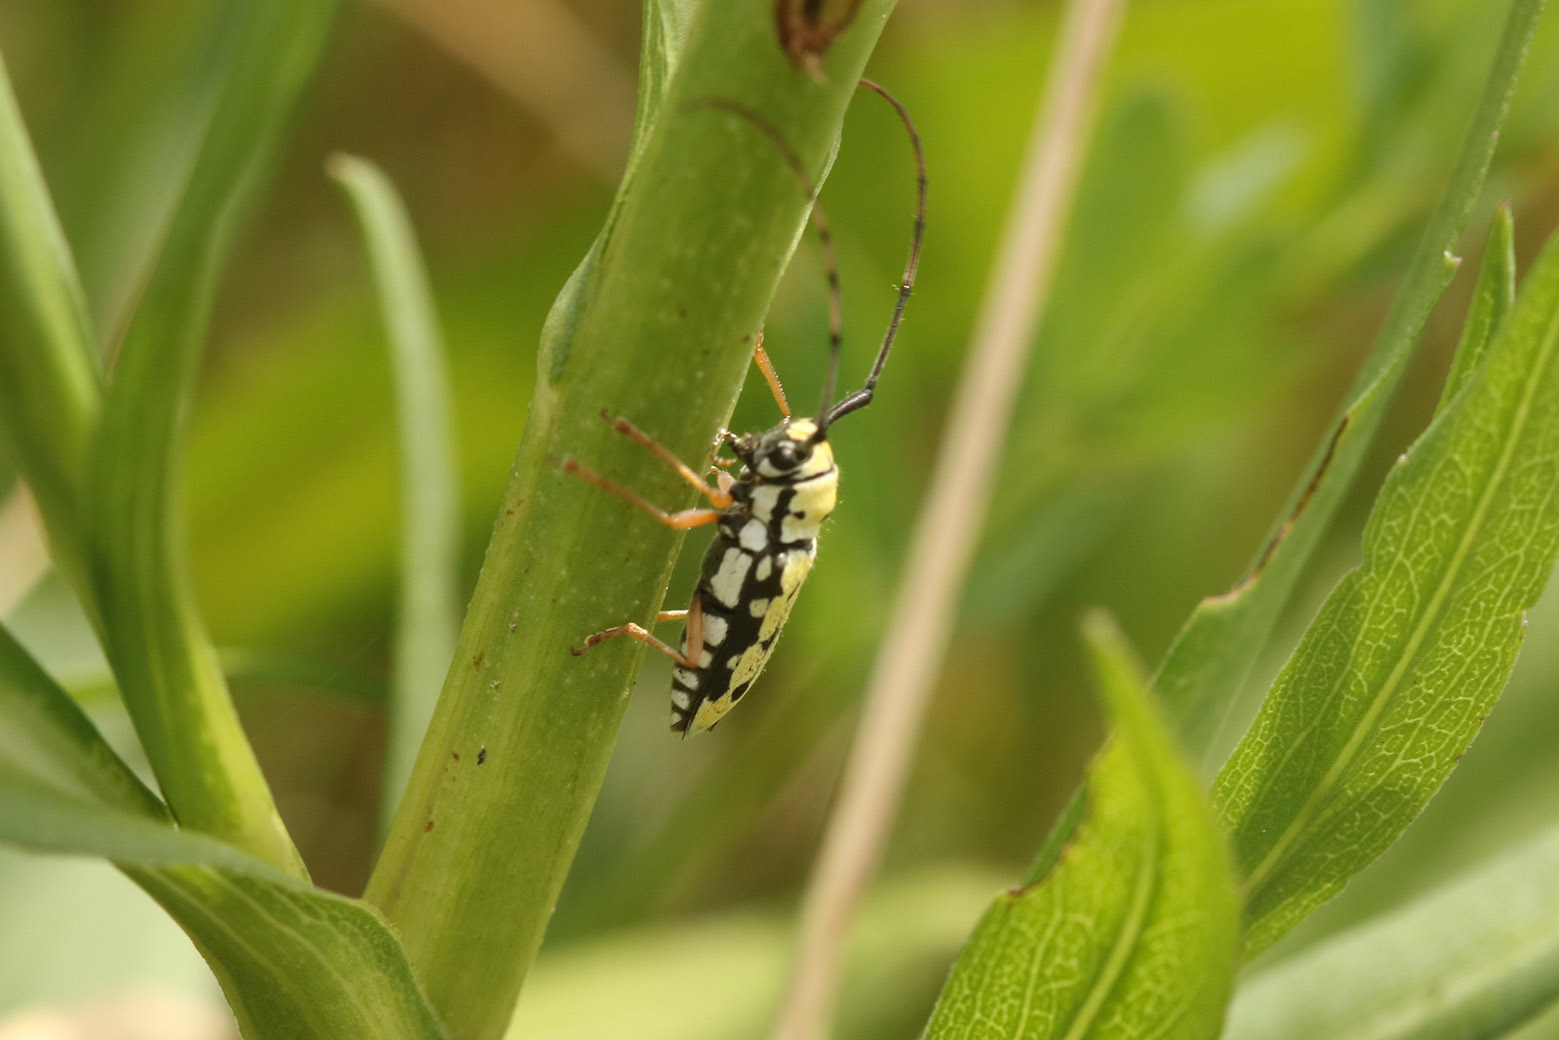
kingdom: Animalia
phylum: Arthropoda
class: Insecta
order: Coleoptera
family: Cerambycidae
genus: Zeale
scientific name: Zeale nigromaculata
